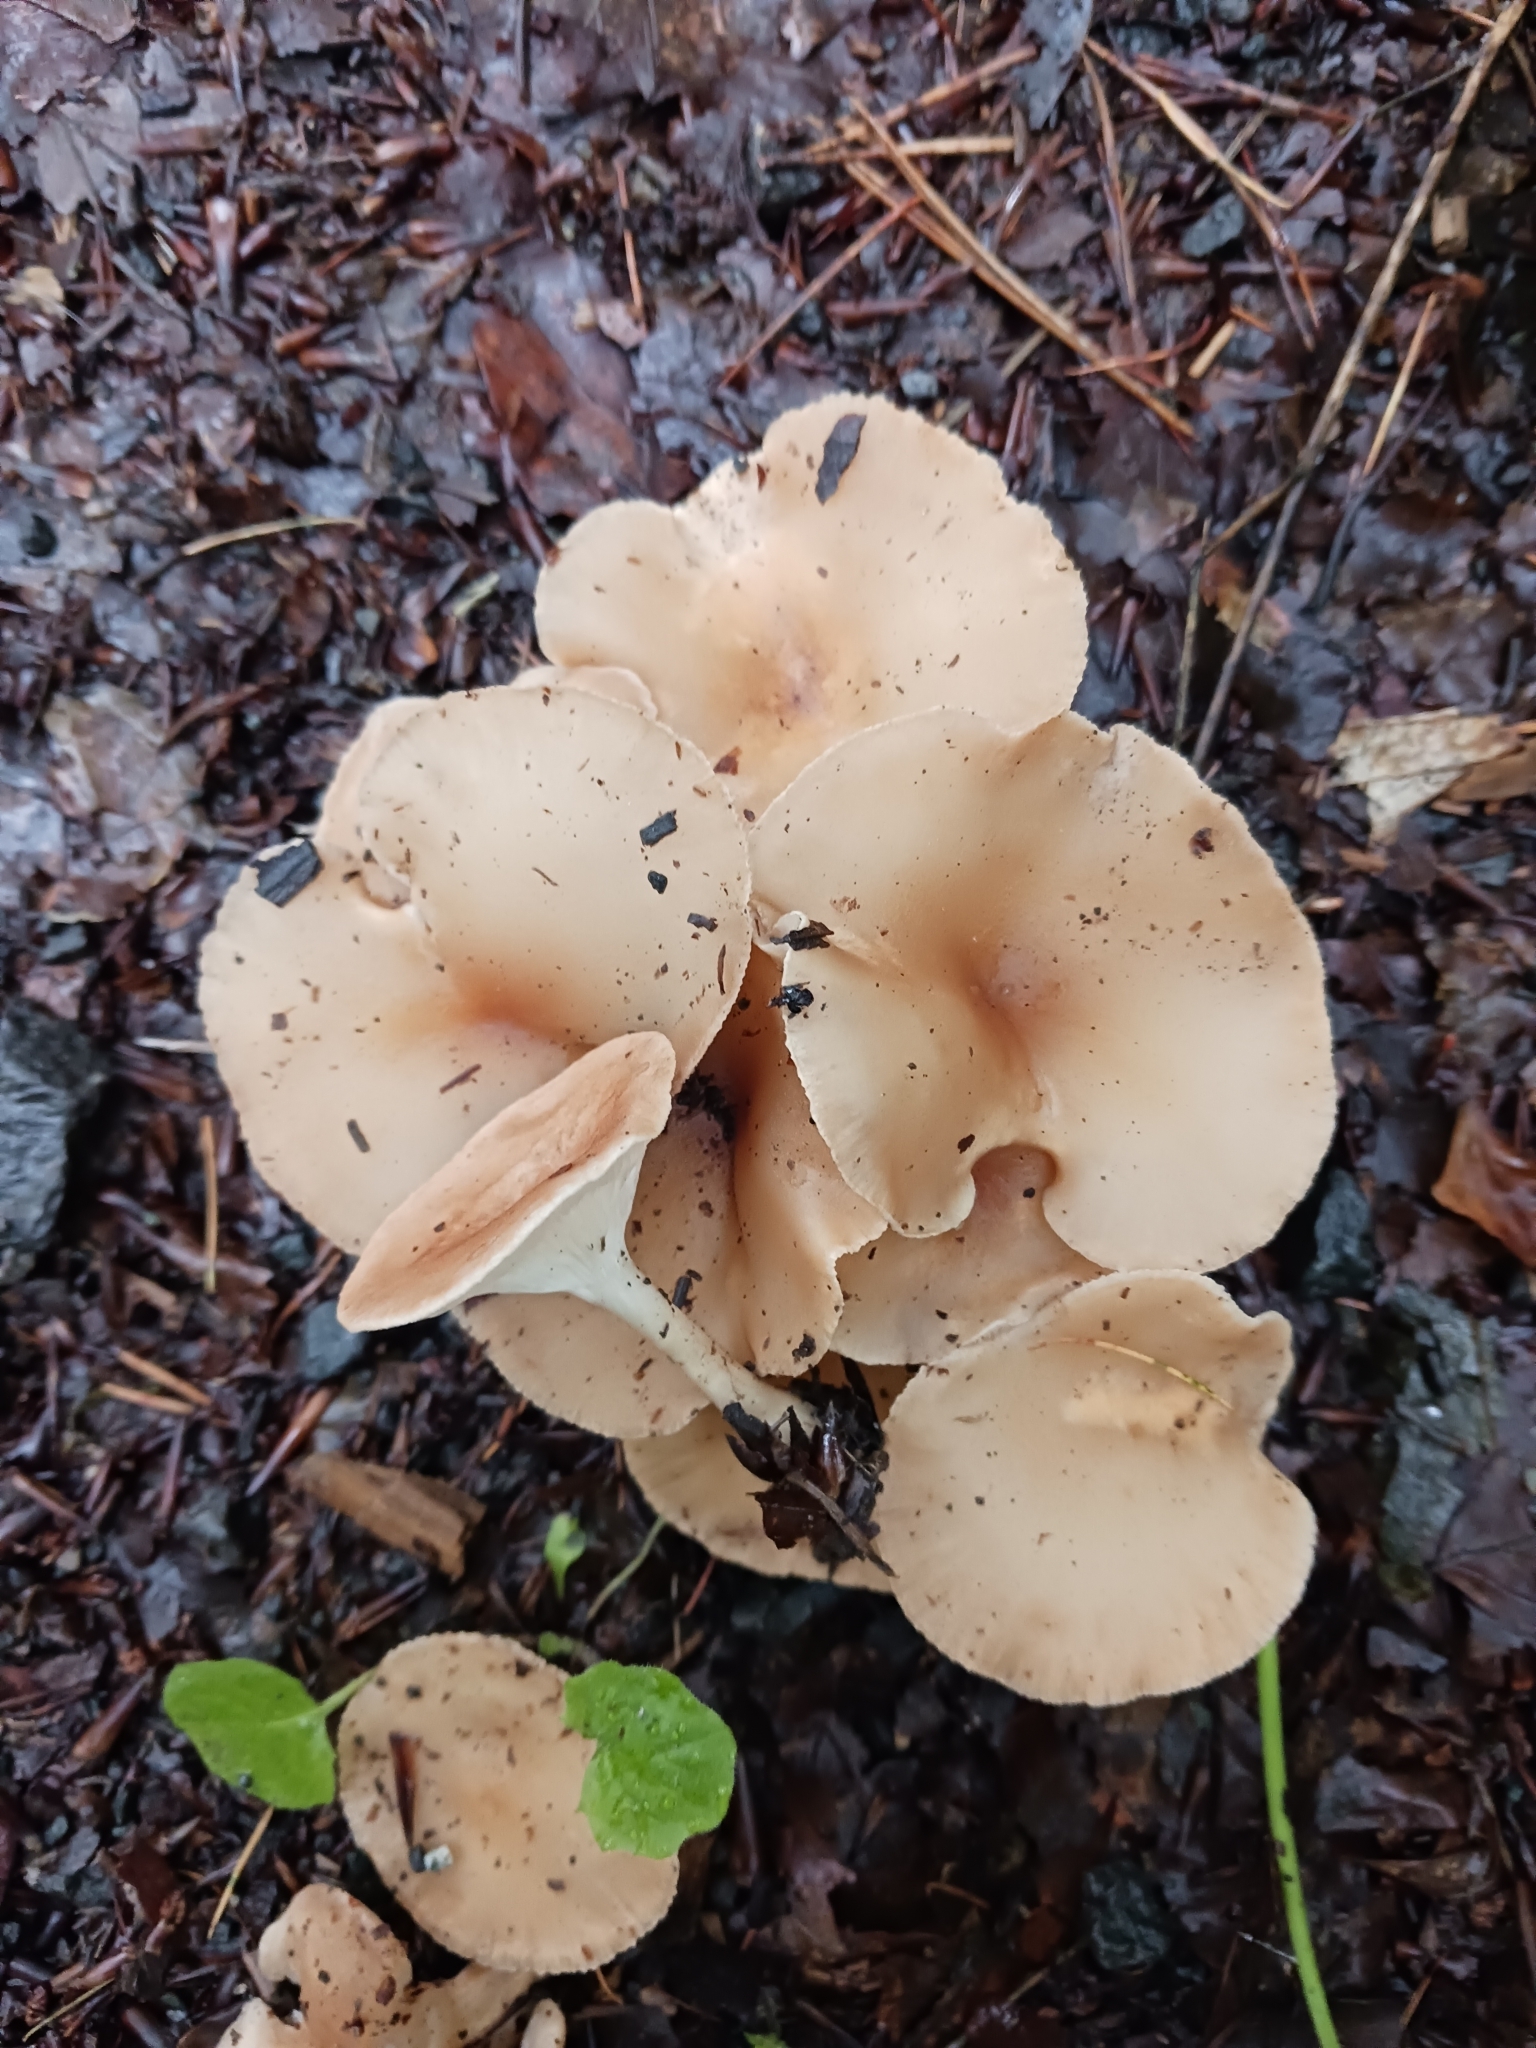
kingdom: Fungi
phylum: Basidiomycota
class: Agaricomycetes
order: Agaricales
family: Tricholomataceae
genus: Infundibulicybe
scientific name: Infundibulicybe gibba
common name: Common funnel
